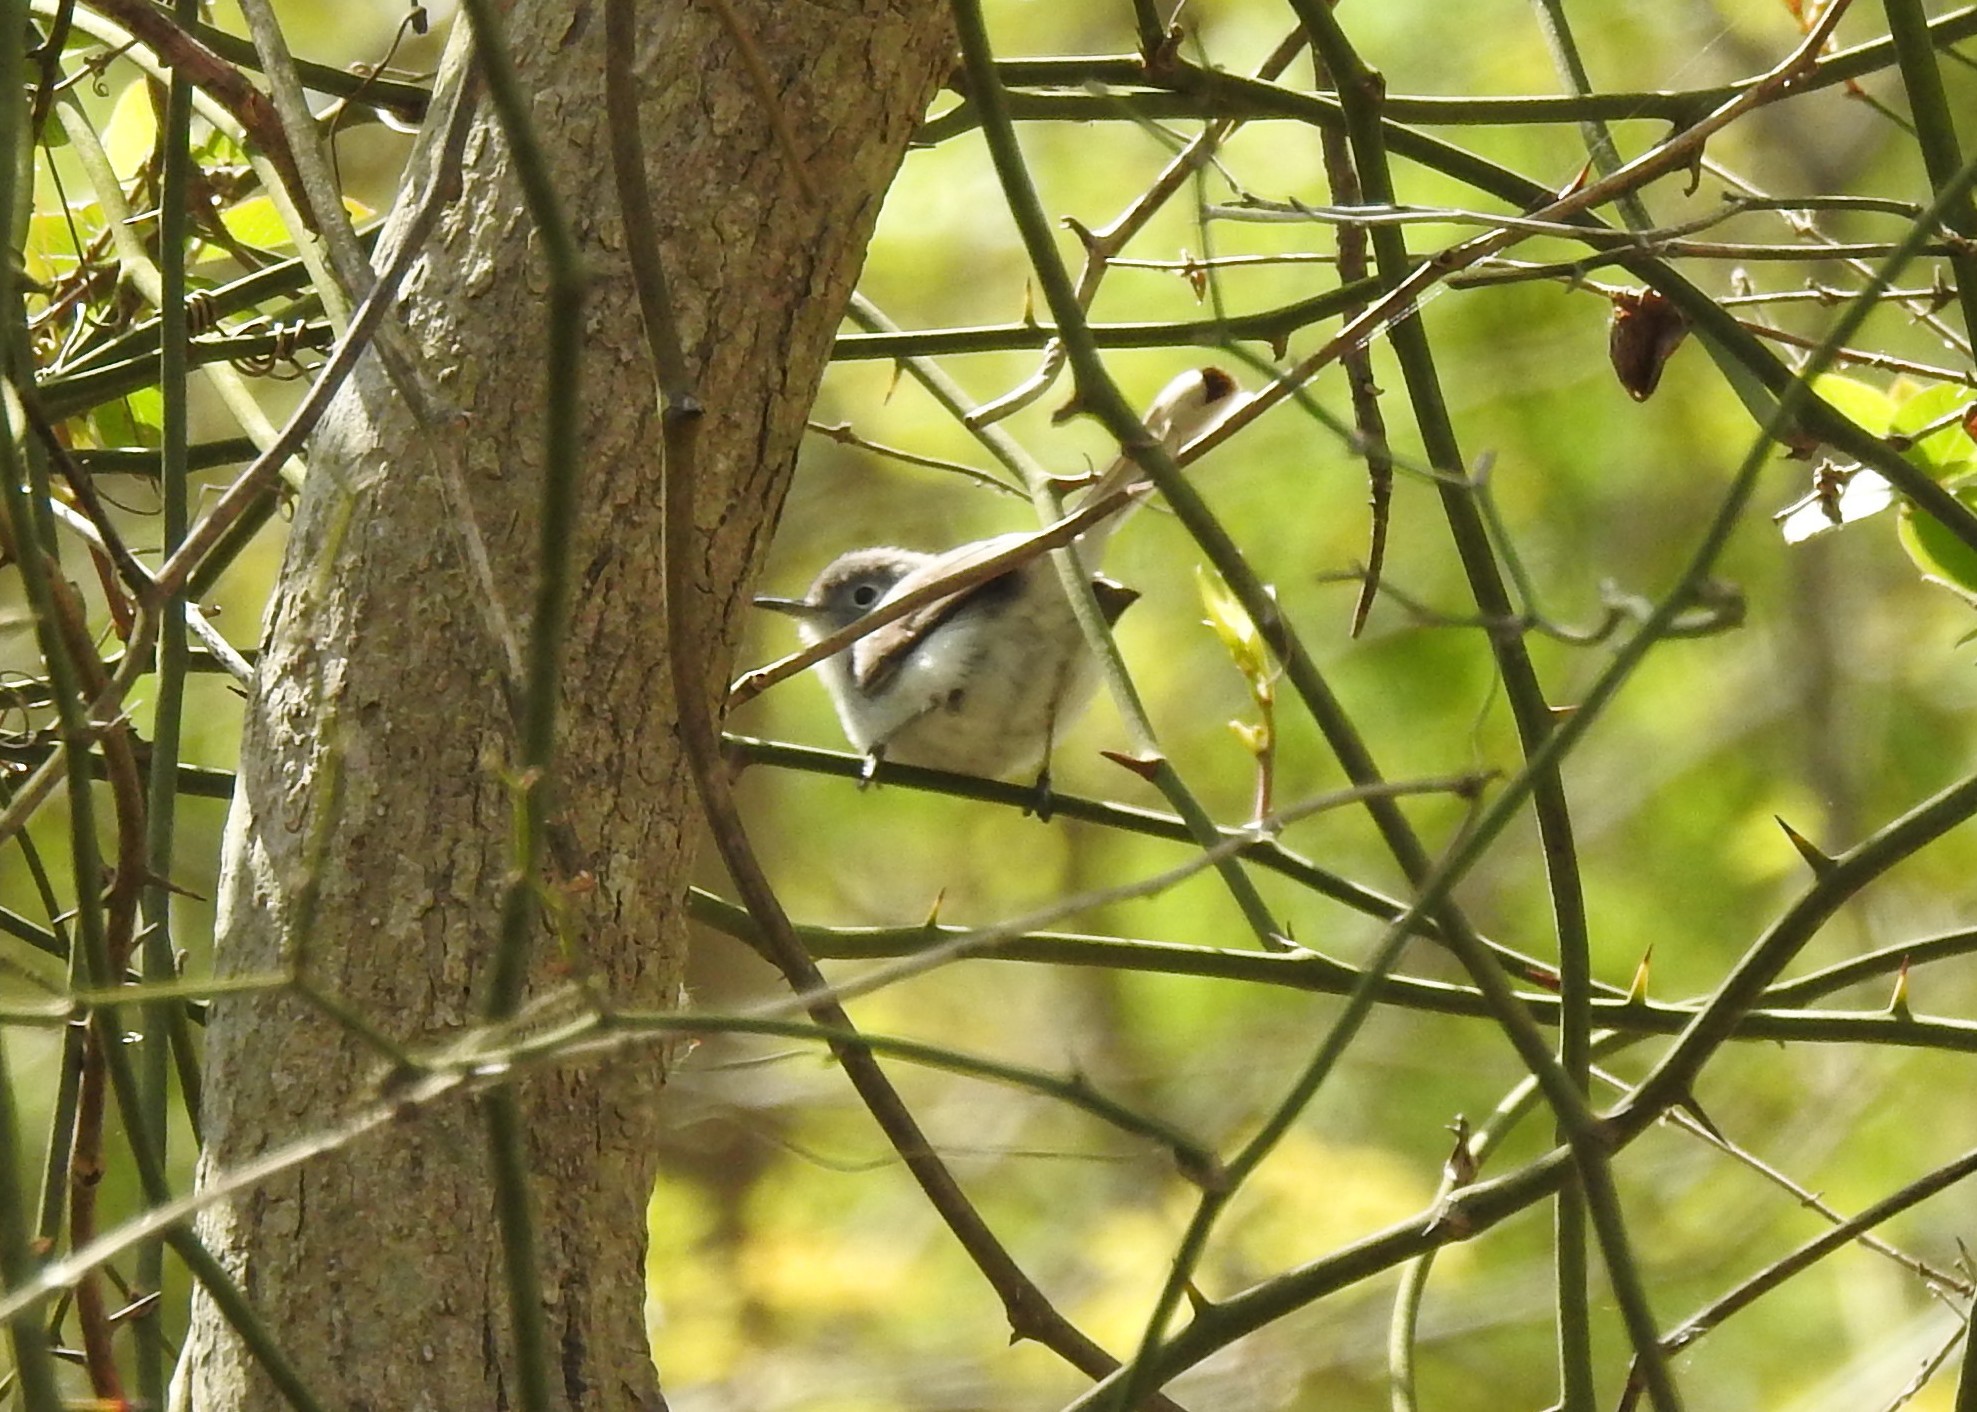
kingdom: Animalia
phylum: Chordata
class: Aves
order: Passeriformes
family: Polioptilidae
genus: Polioptila
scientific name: Polioptila caerulea
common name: Blue-gray gnatcatcher
